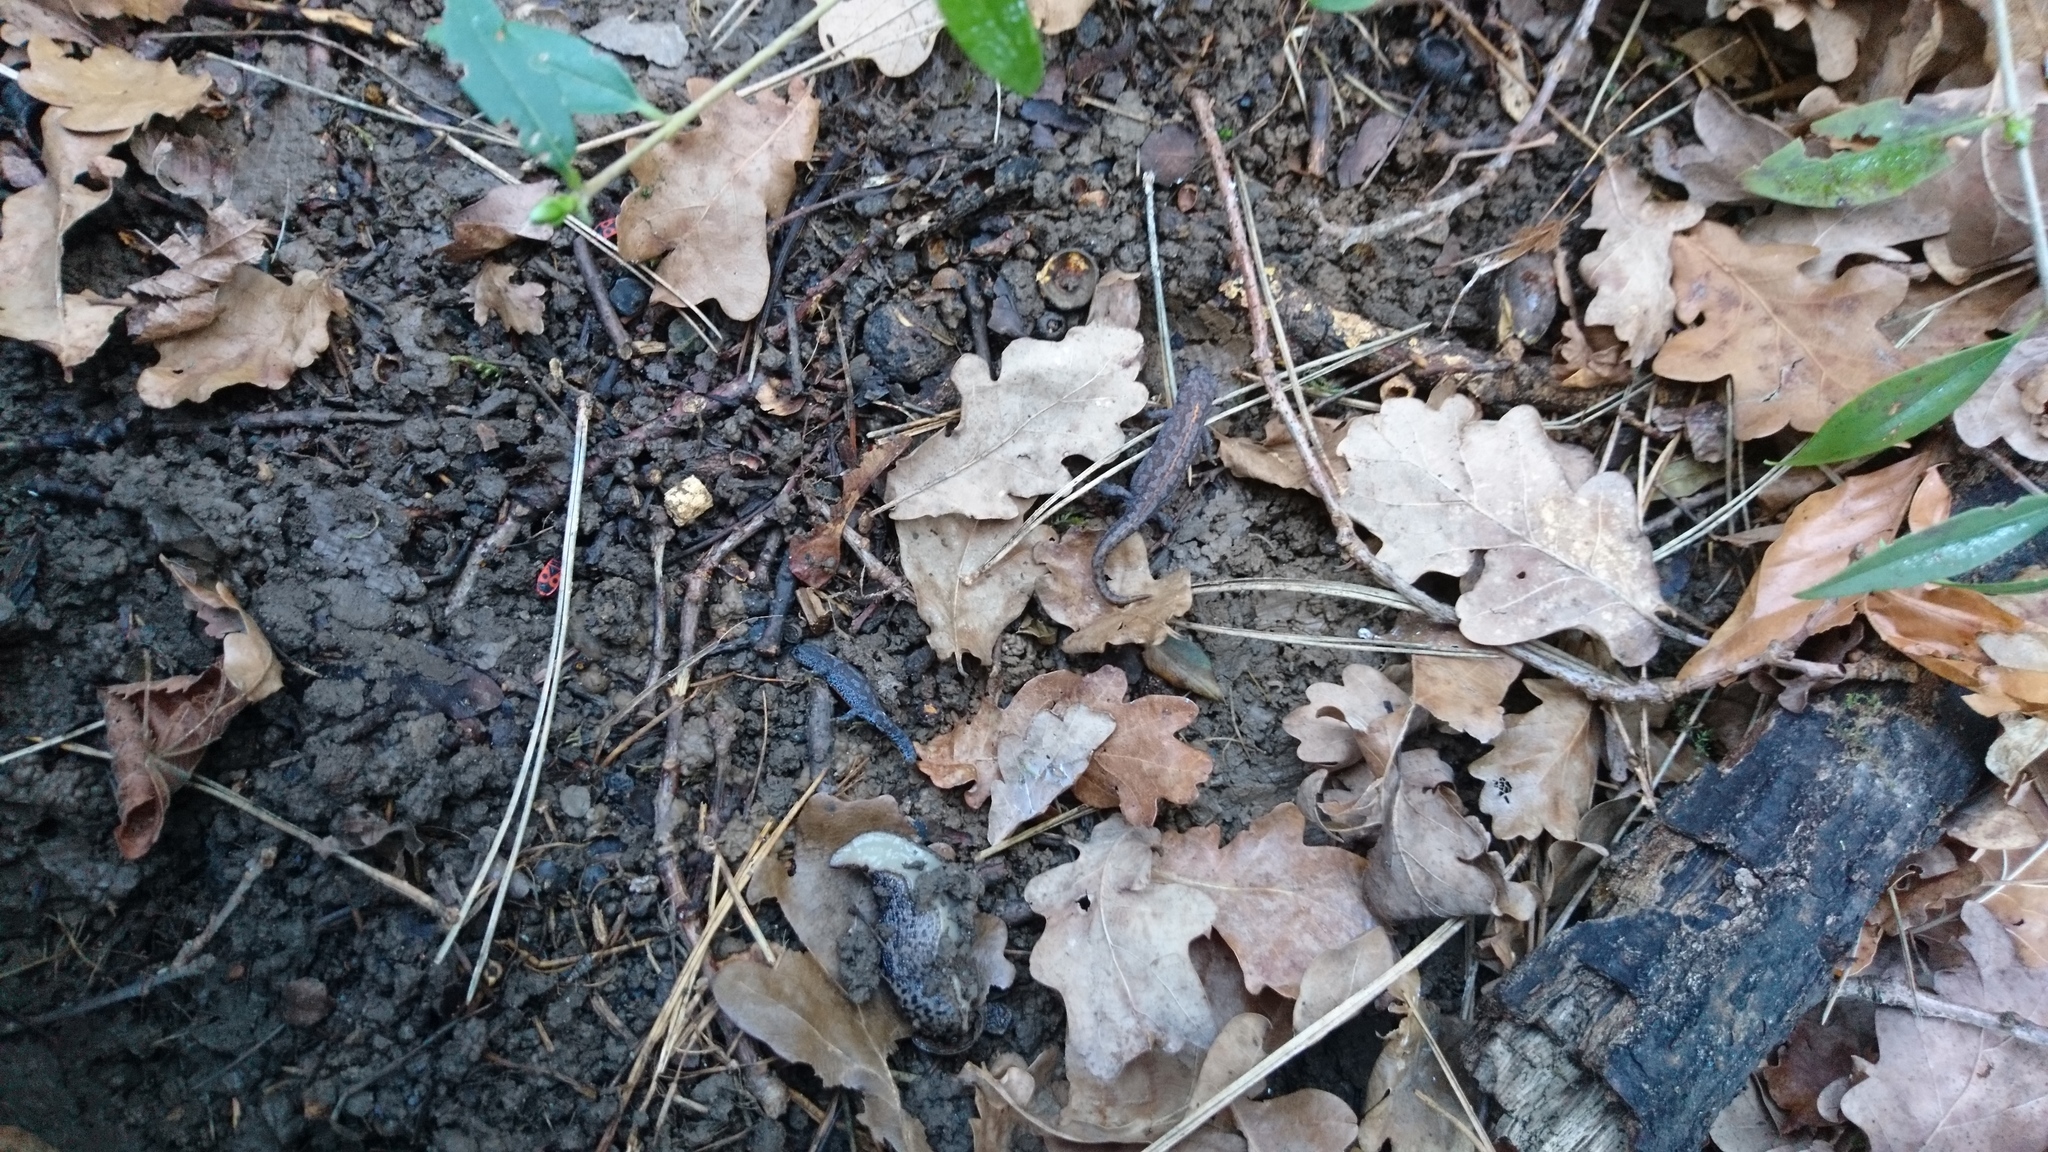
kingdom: Animalia
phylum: Chordata
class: Amphibia
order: Caudata
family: Salamandridae
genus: Ichthyosaura
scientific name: Ichthyosaura alpestris
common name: Alpine newt
